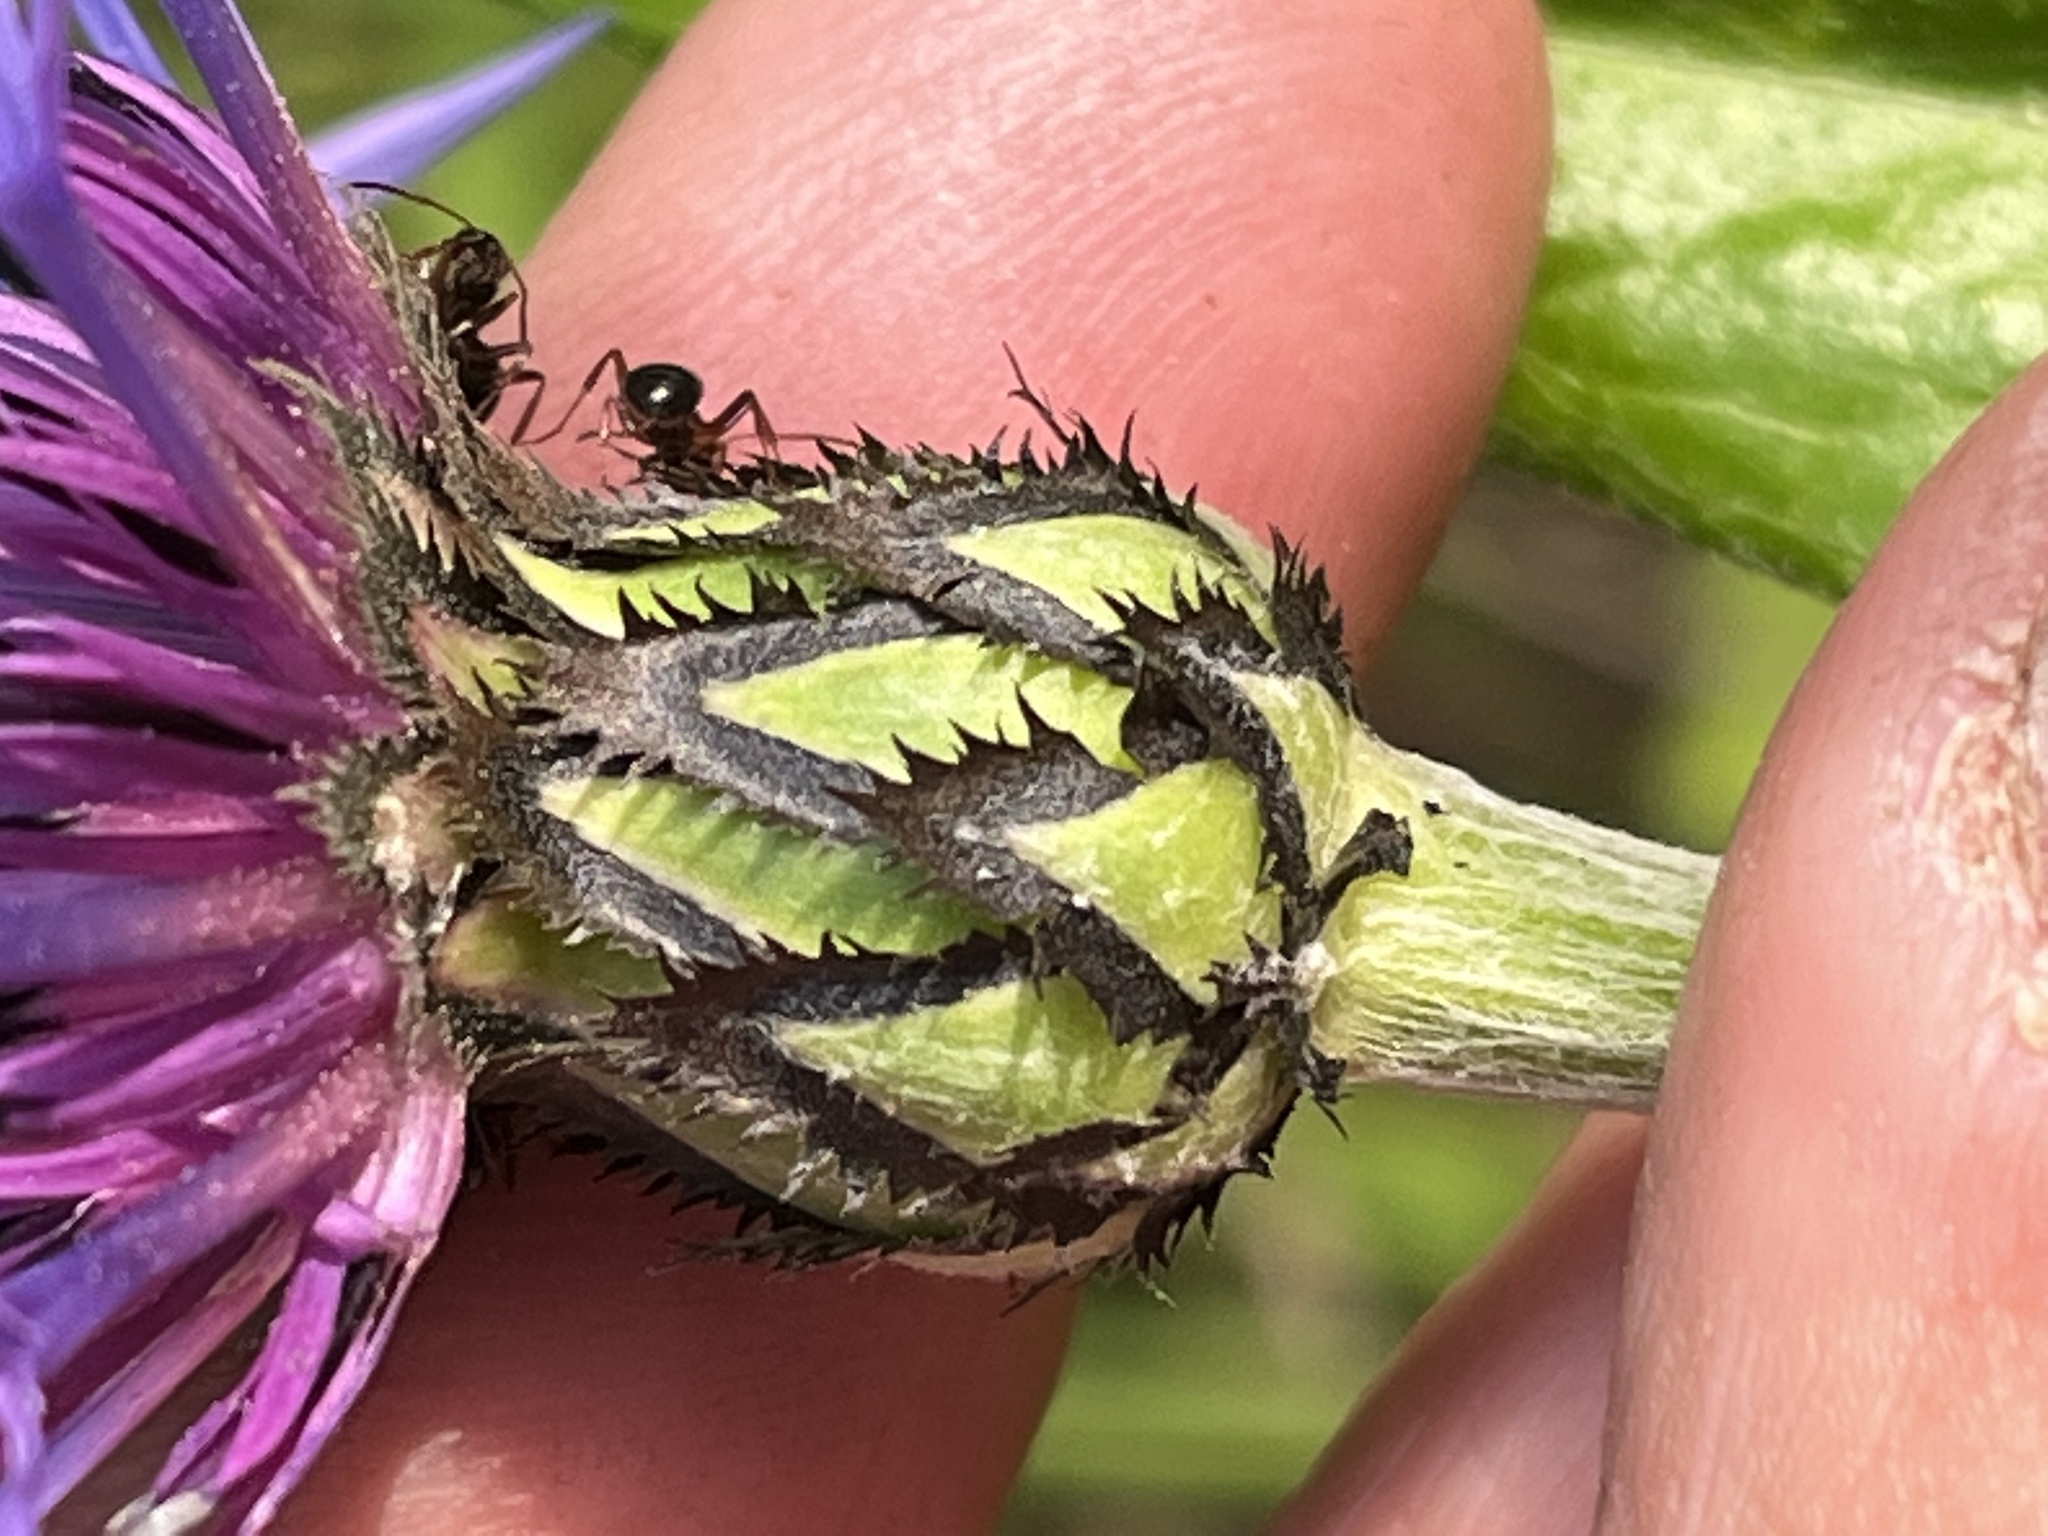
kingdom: Plantae
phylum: Tracheophyta
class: Magnoliopsida
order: Asterales
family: Asteraceae
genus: Centaurea
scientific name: Centaurea montana
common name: Perennial cornflower
